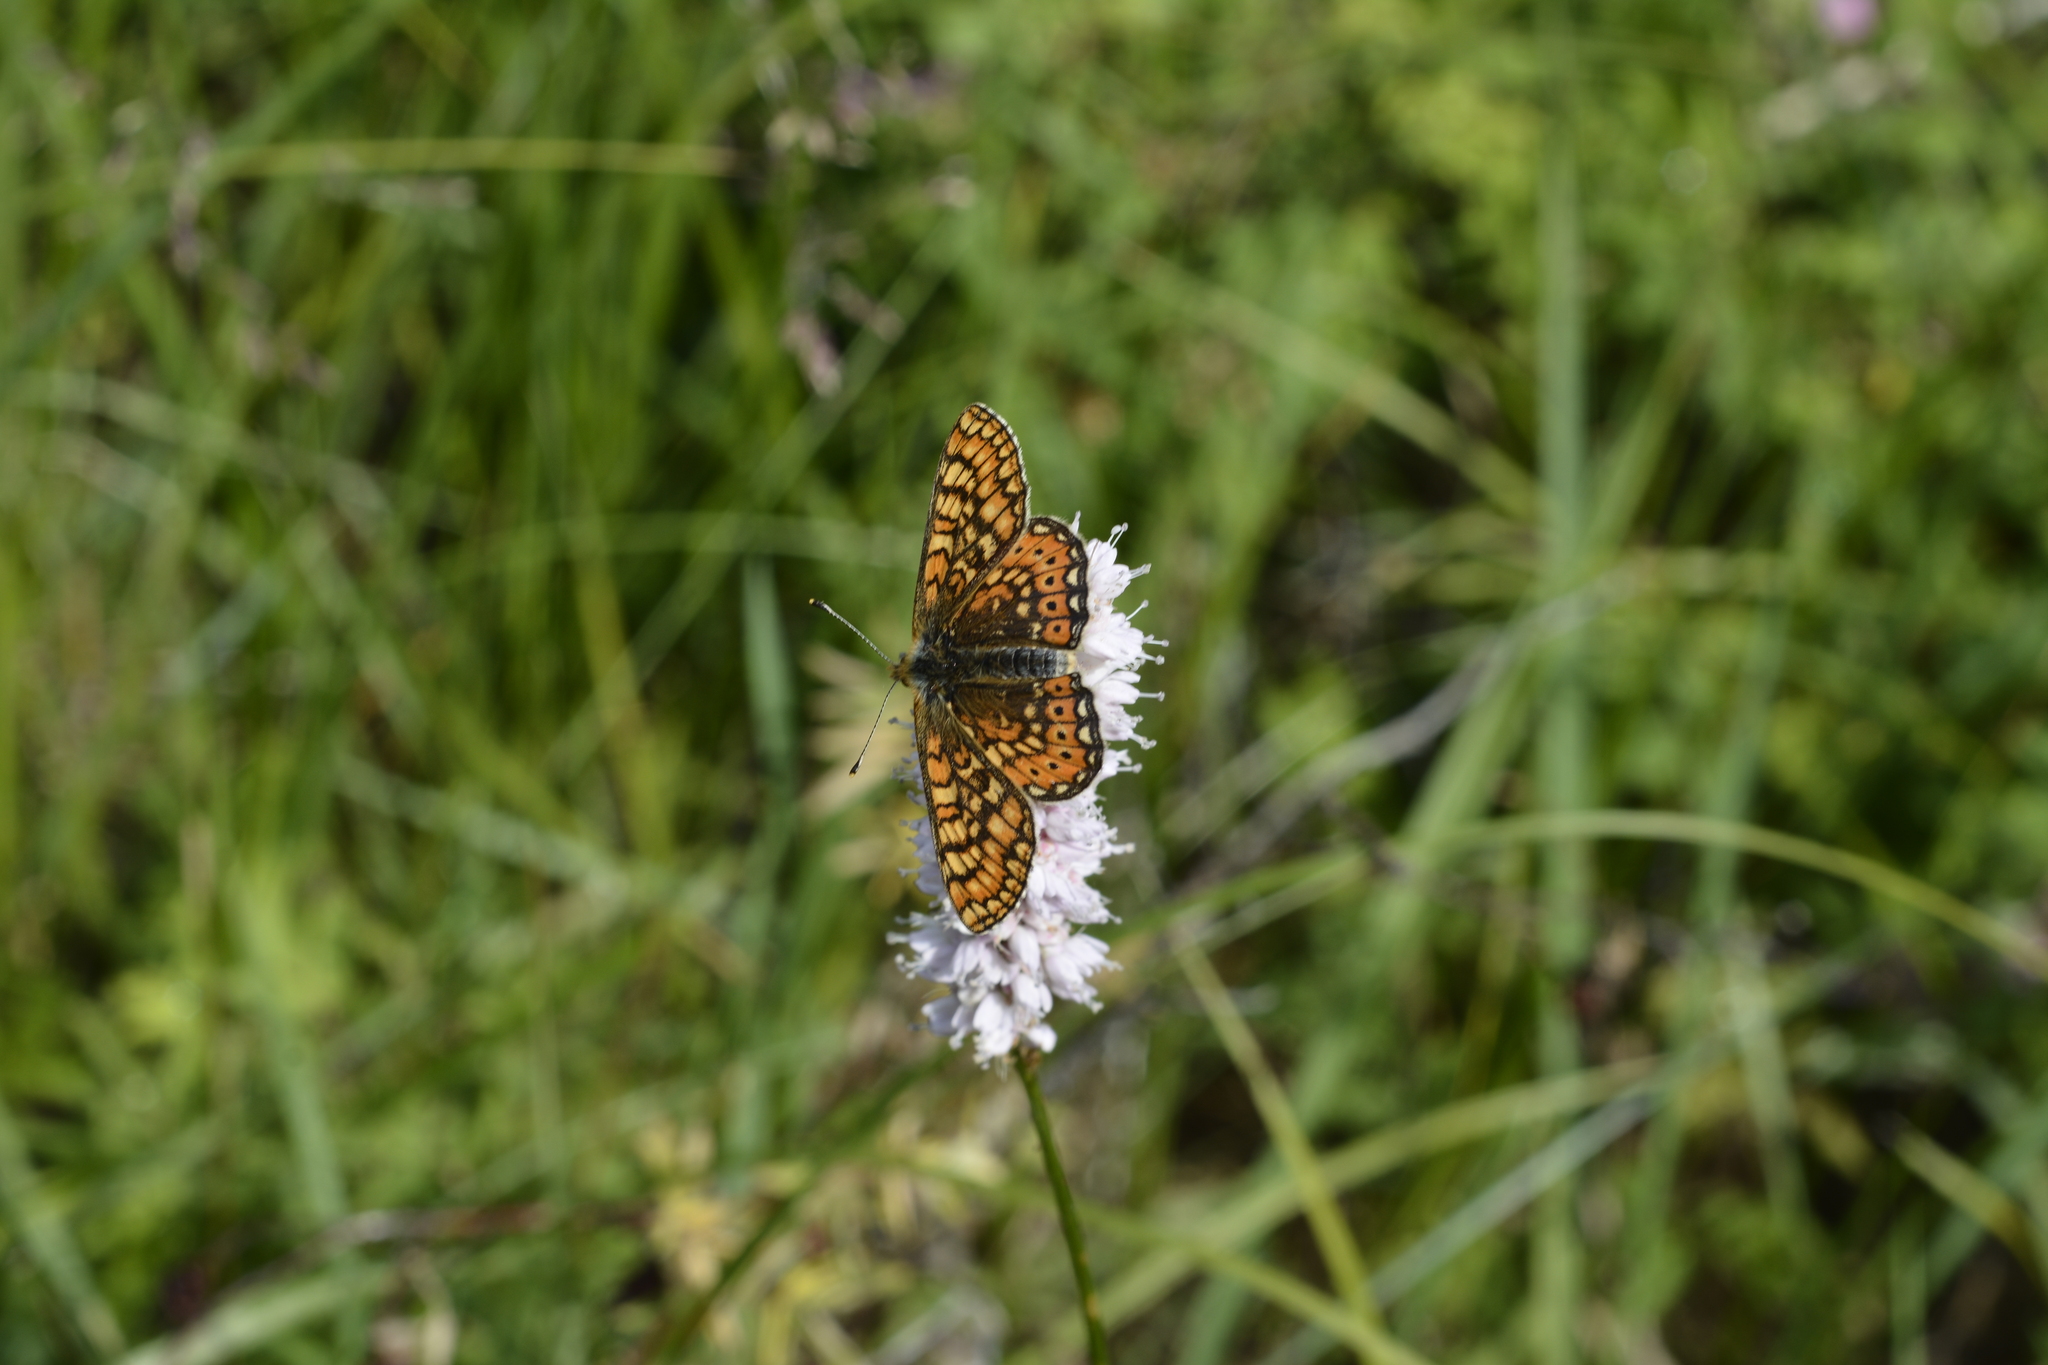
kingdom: Animalia
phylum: Arthropoda
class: Insecta
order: Lepidoptera
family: Nymphalidae
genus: Euphydryas
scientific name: Euphydryas aurinia
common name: Marsh fritillary
